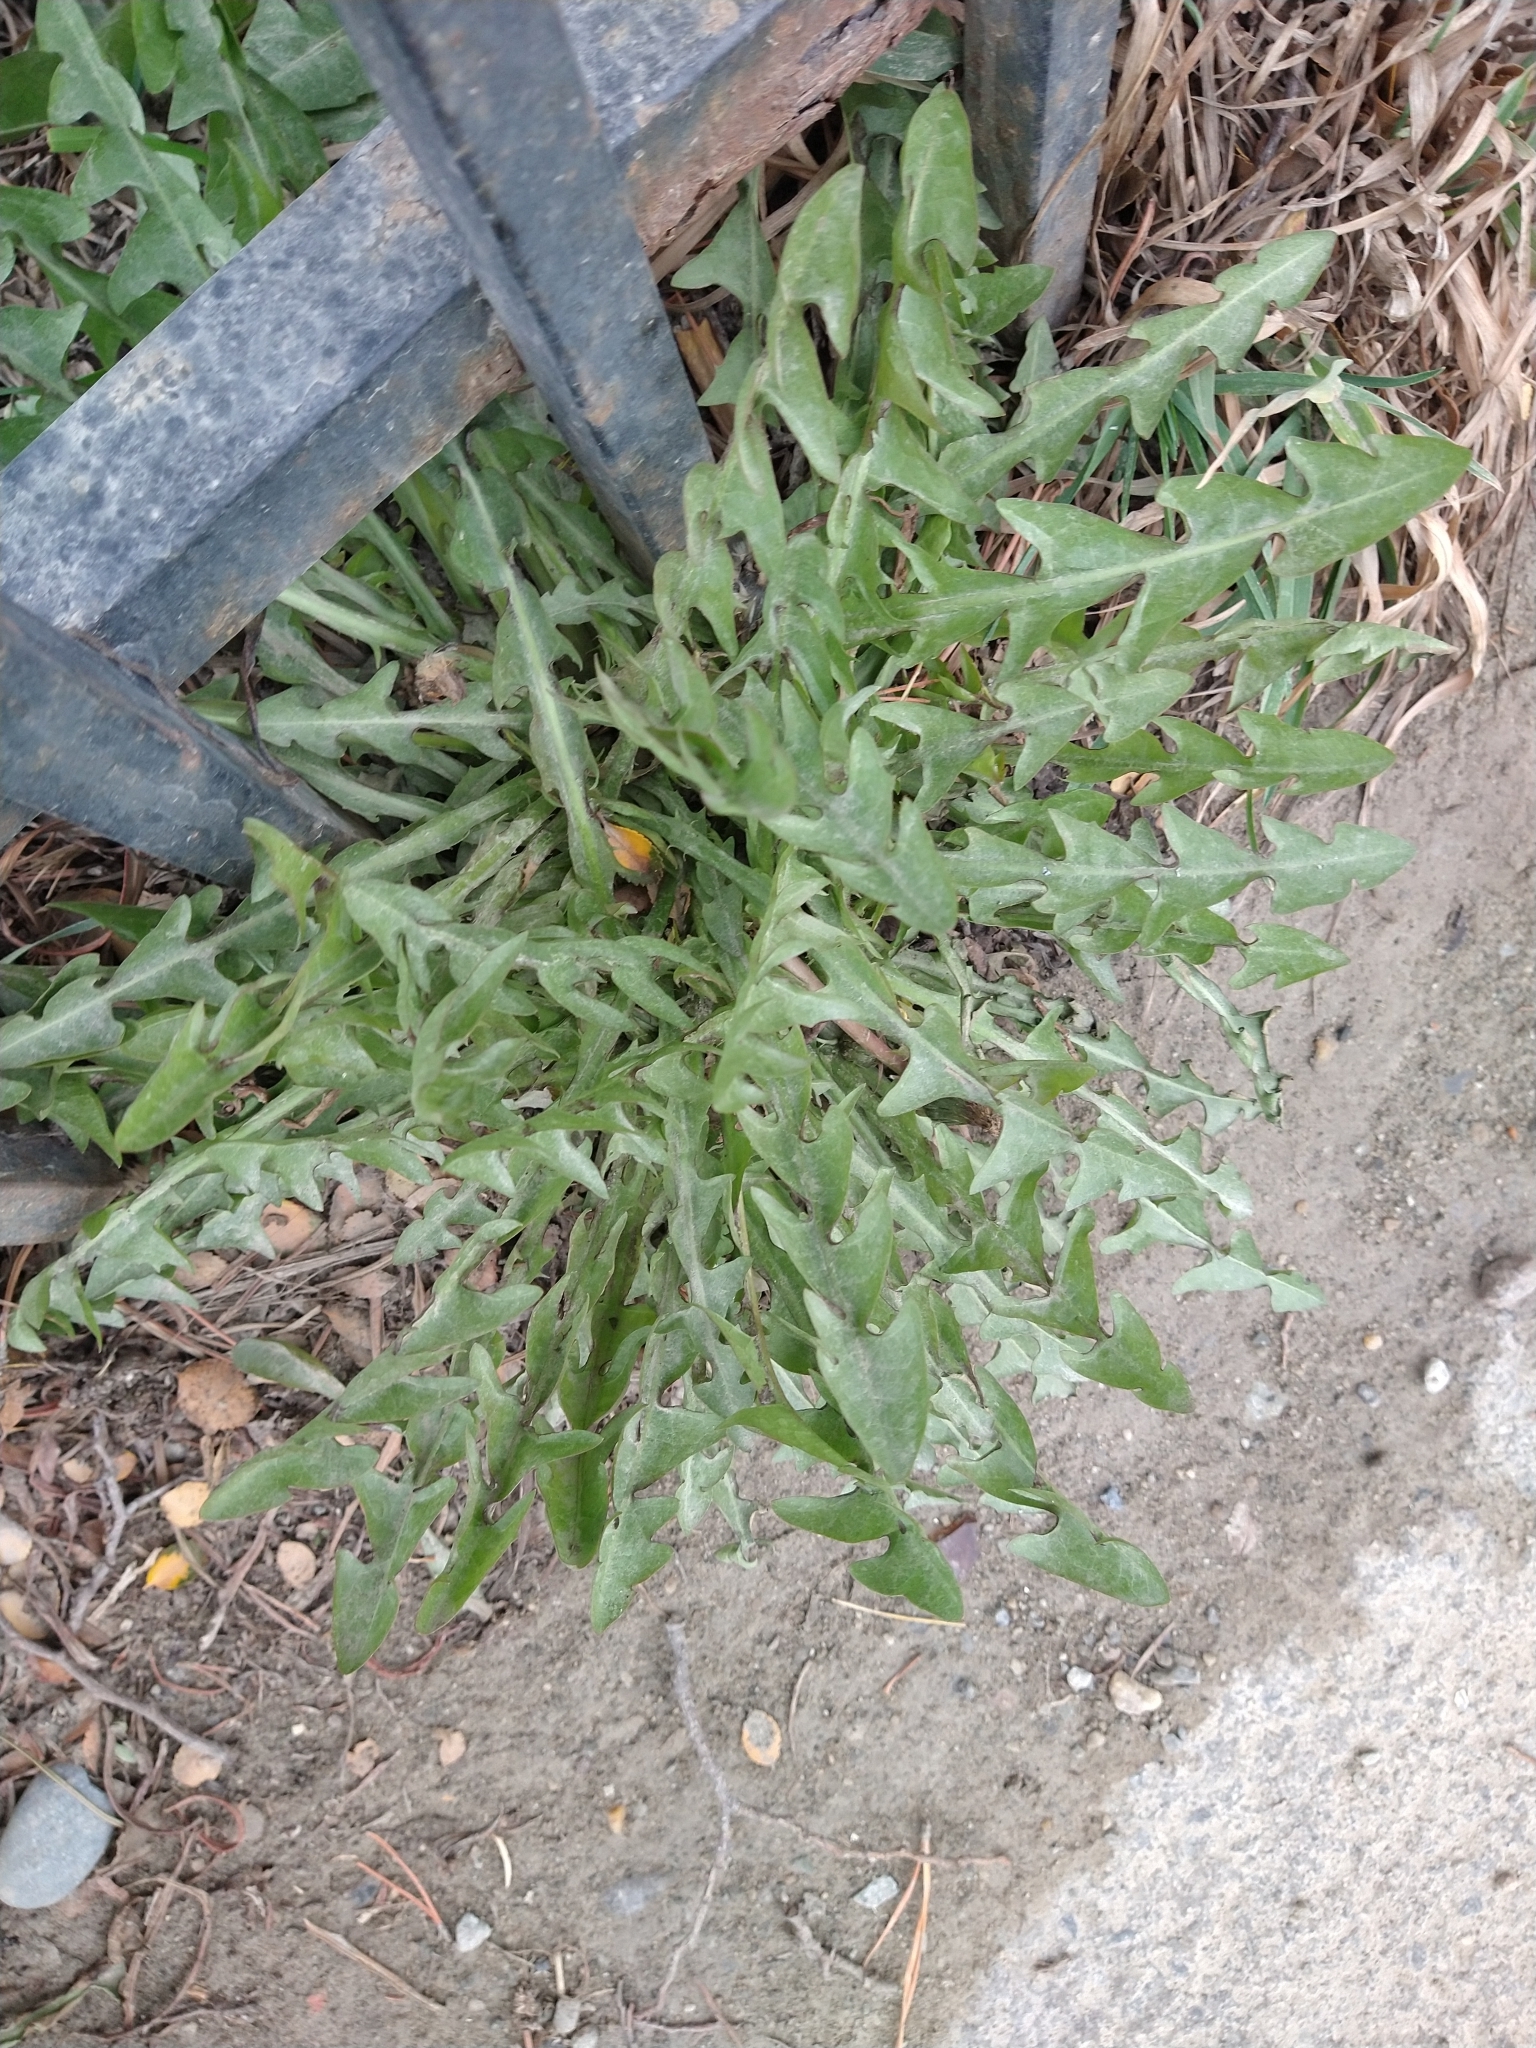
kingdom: Plantae
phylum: Tracheophyta
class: Magnoliopsida
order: Asterales
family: Asteraceae
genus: Taraxacum
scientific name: Taraxacum officinale
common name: Common dandelion
